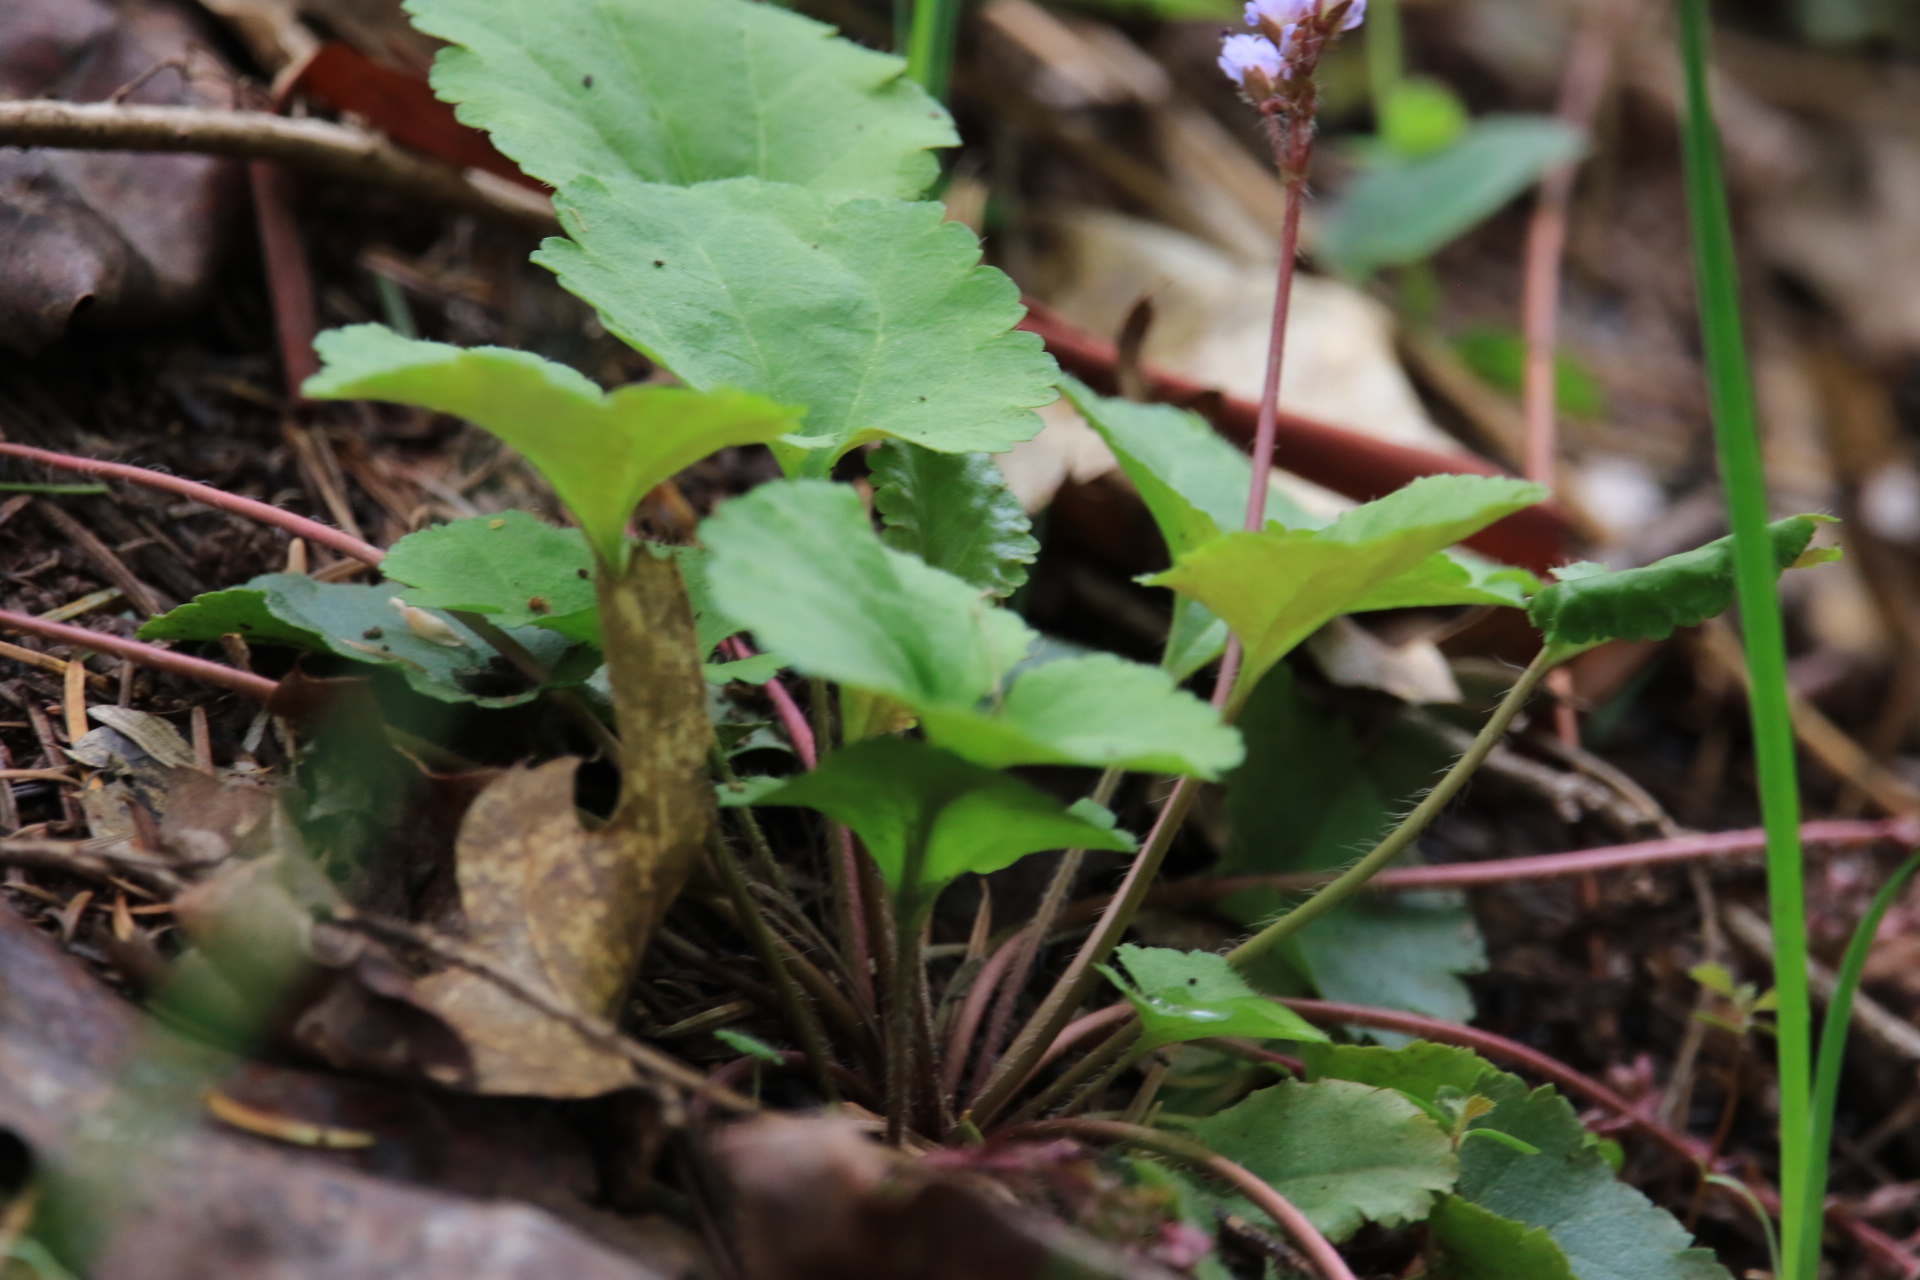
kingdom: Plantae
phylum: Tracheophyta
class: Magnoliopsida
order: Lamiales
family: Plantaginaceae
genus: Synthyris
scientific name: Synthyris reniformis
